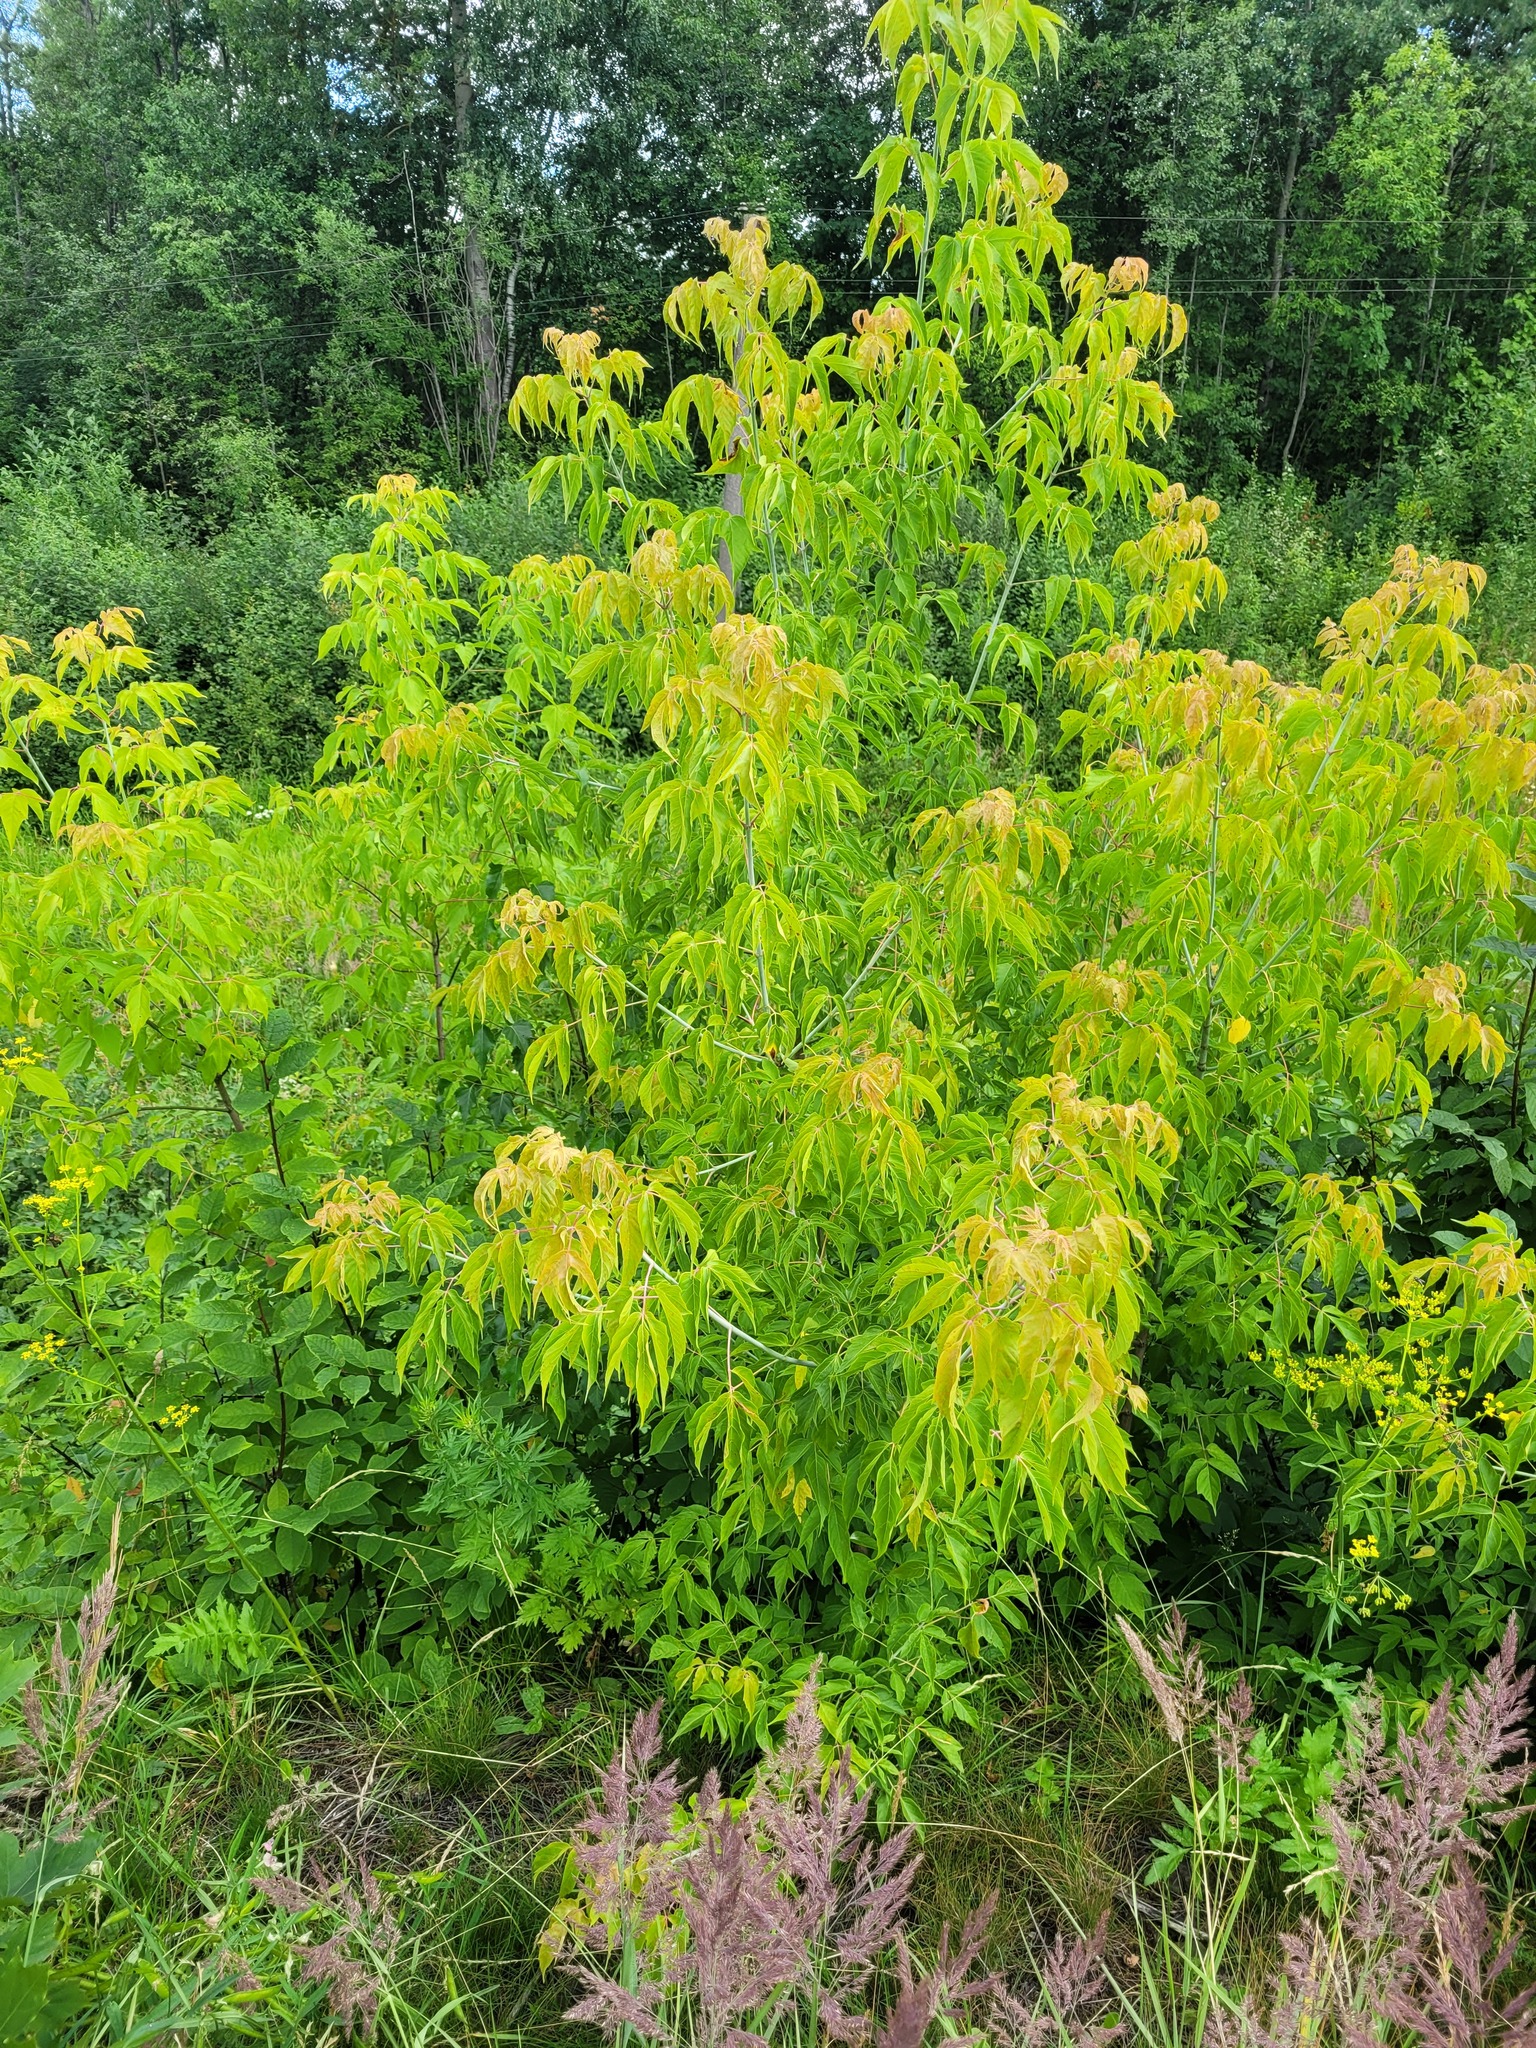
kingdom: Plantae
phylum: Tracheophyta
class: Magnoliopsida
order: Sapindales
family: Sapindaceae
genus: Acer
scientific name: Acer negundo
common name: Ashleaf maple
